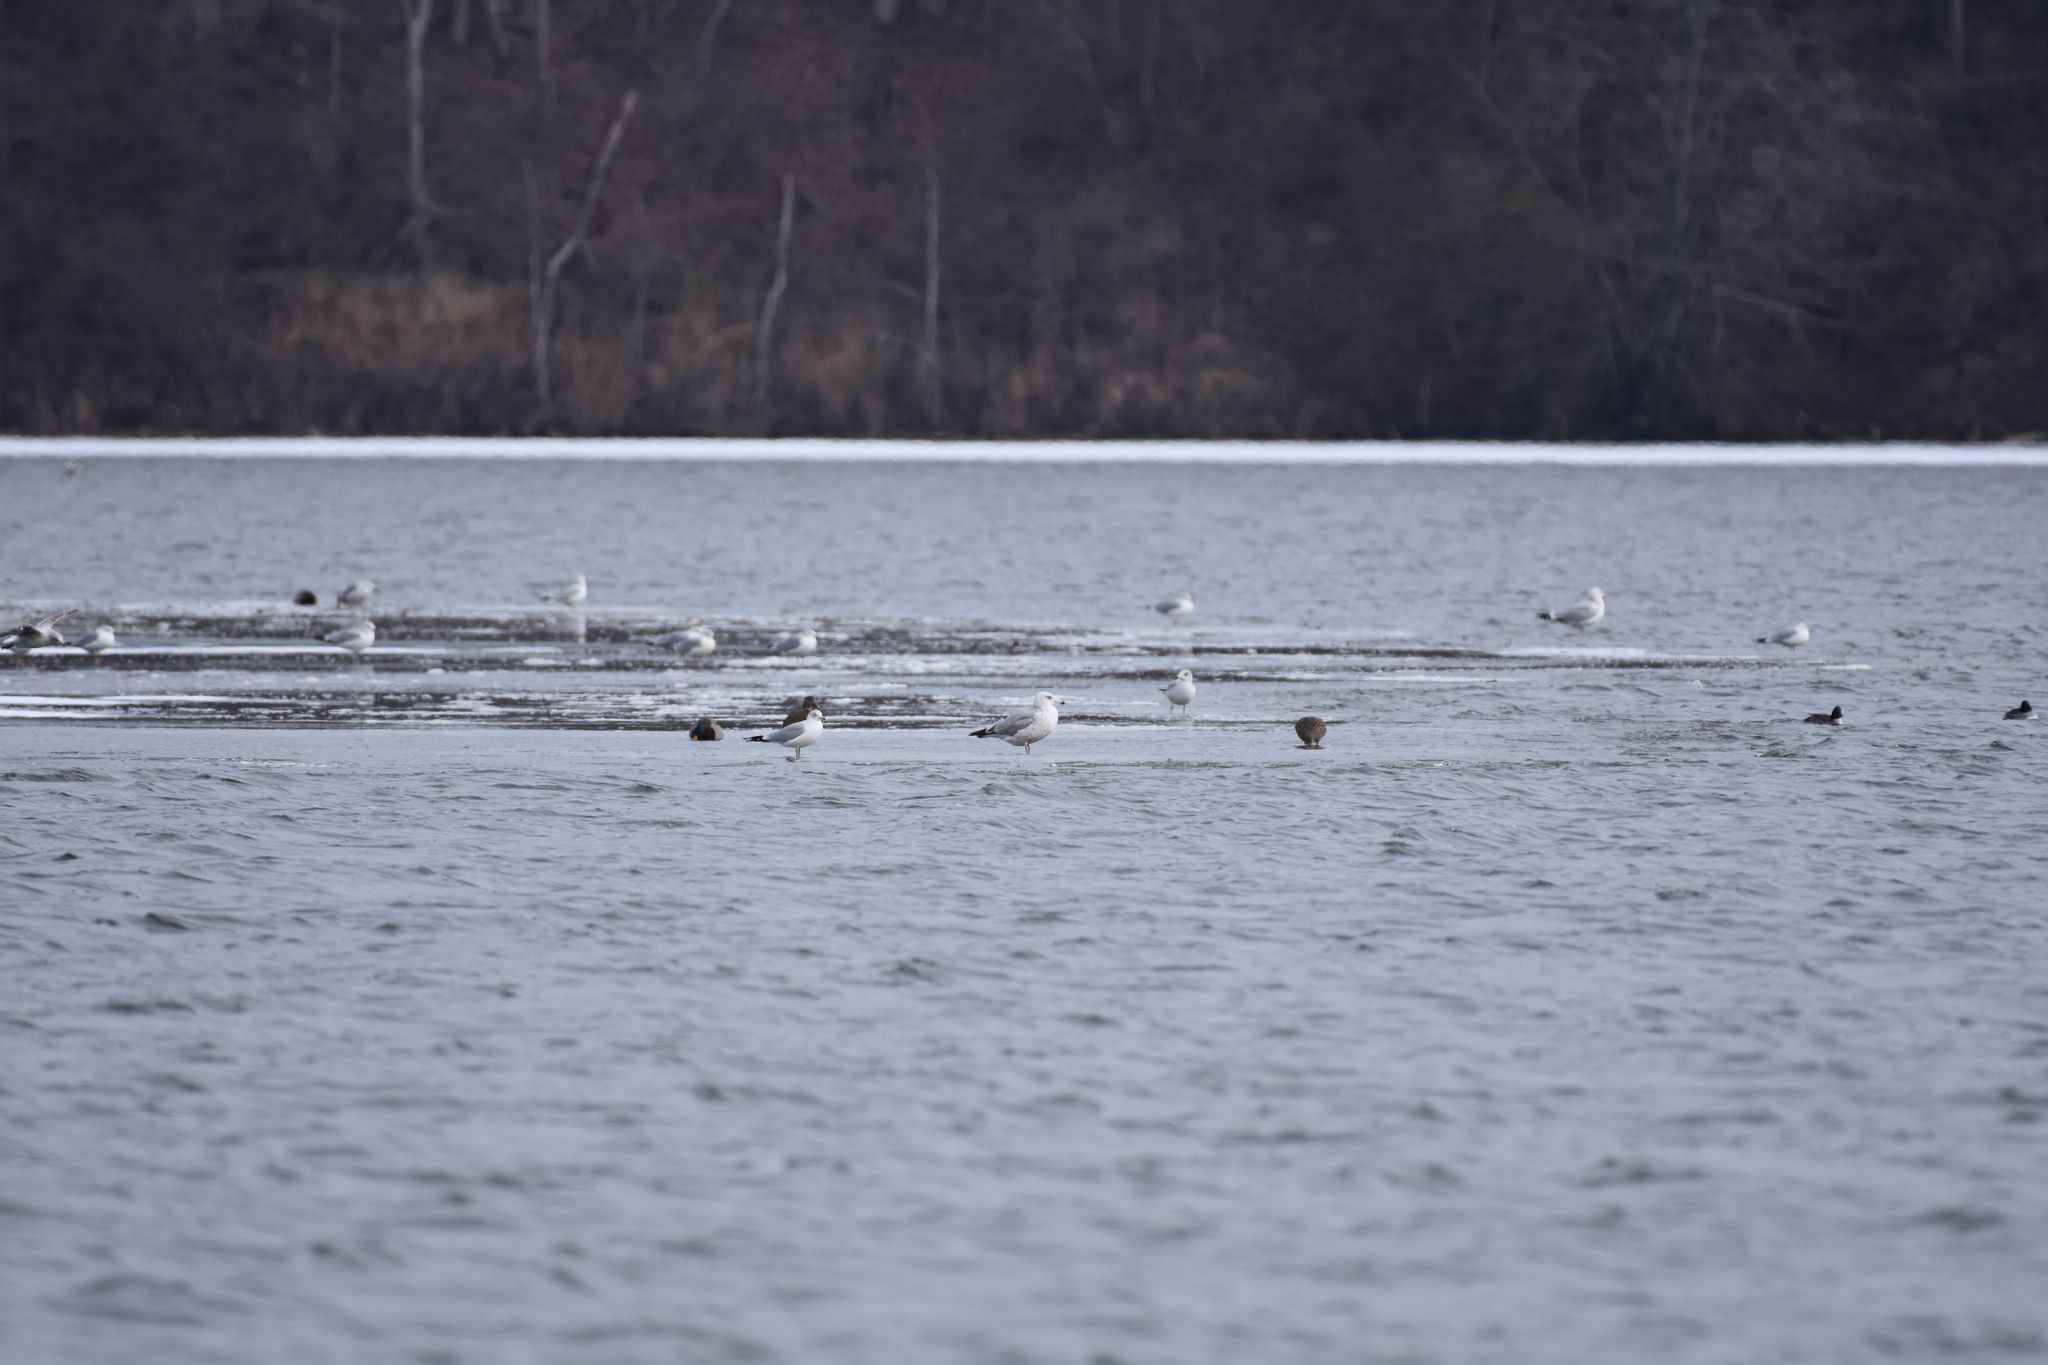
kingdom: Animalia
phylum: Chordata
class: Aves
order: Charadriiformes
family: Laridae
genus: Larus
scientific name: Larus argentatus
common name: Herring gull
